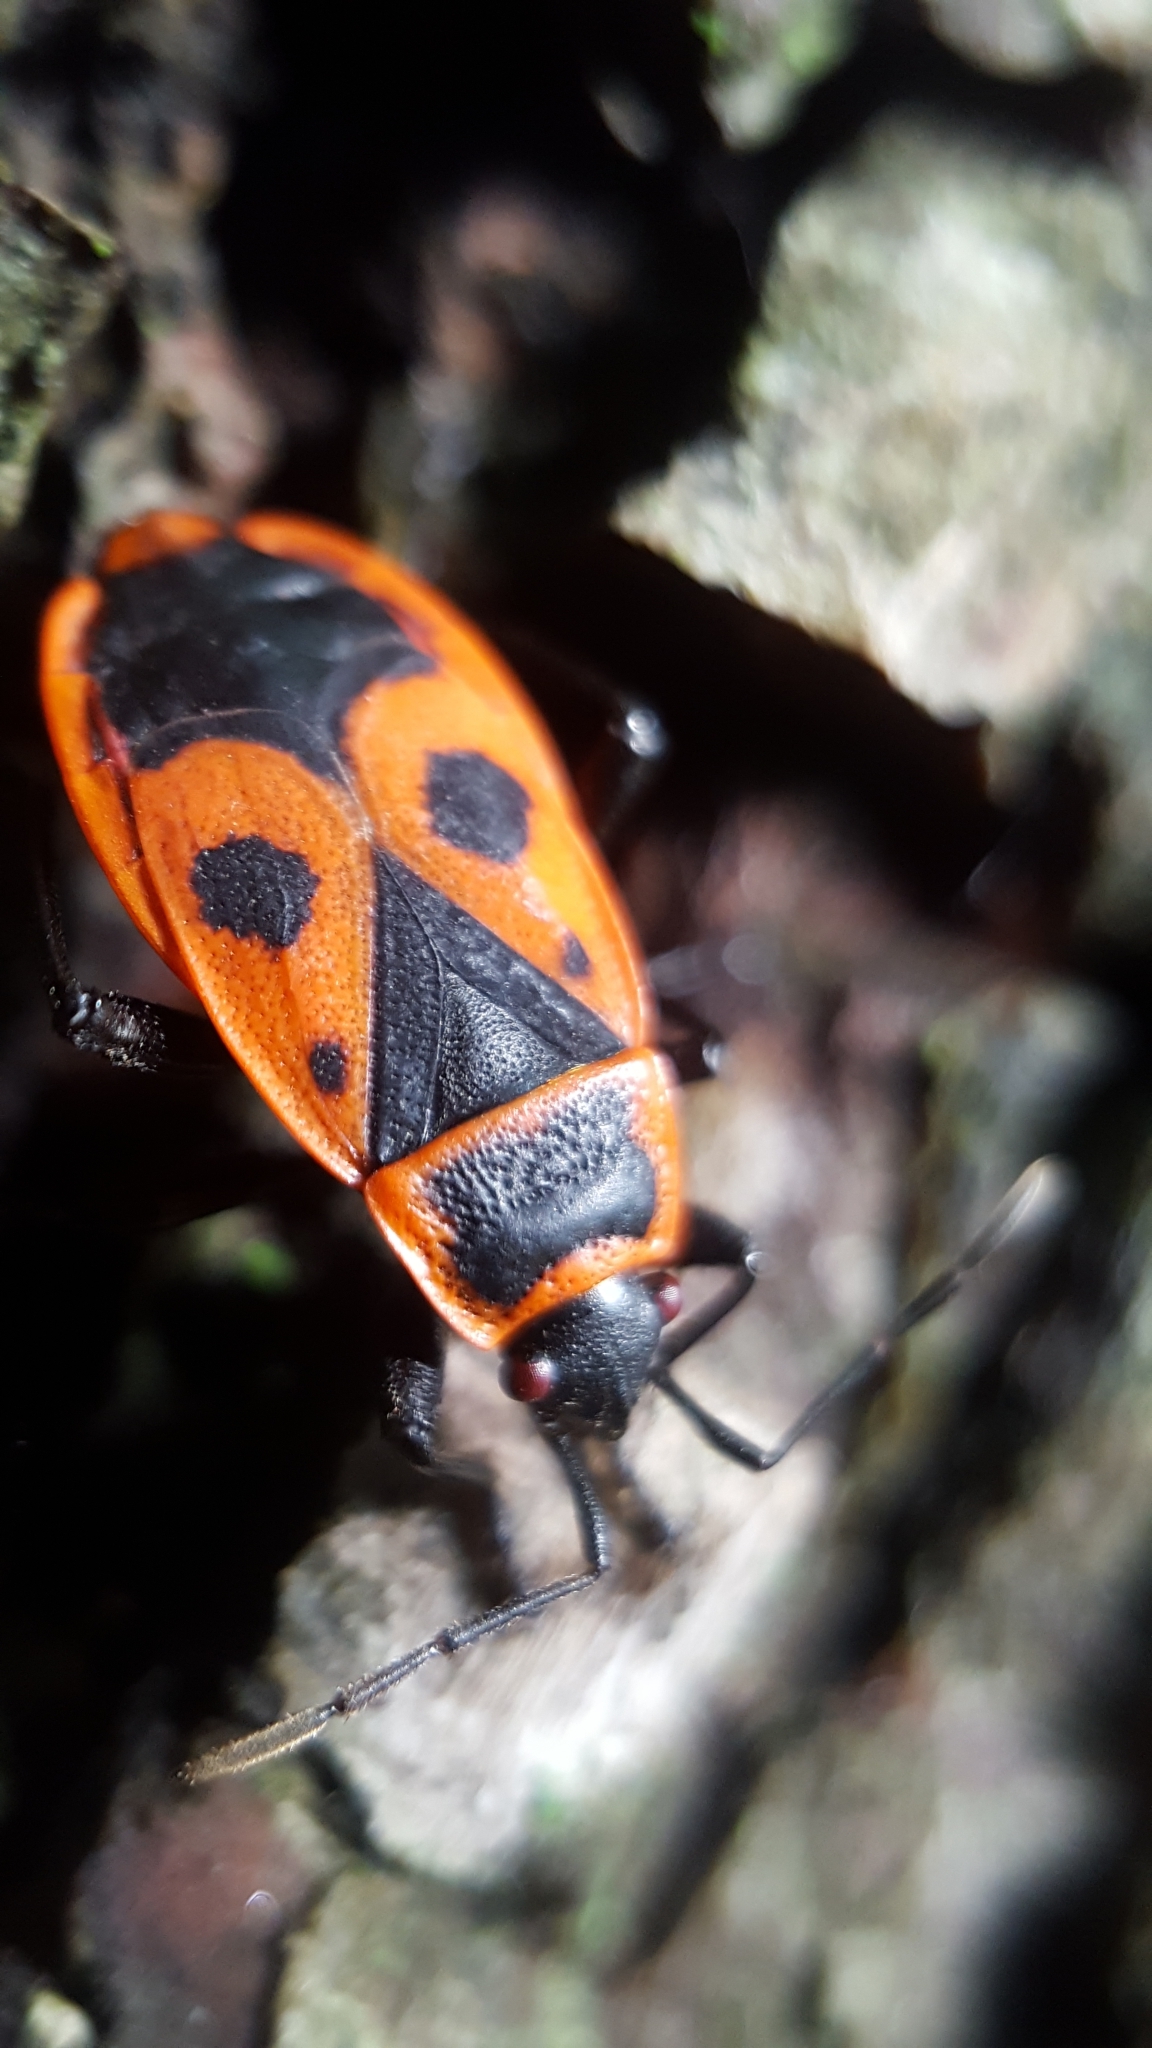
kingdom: Animalia
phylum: Arthropoda
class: Insecta
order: Hemiptera
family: Pyrrhocoridae
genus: Pyrrhocoris
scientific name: Pyrrhocoris apterus
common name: Firebug
